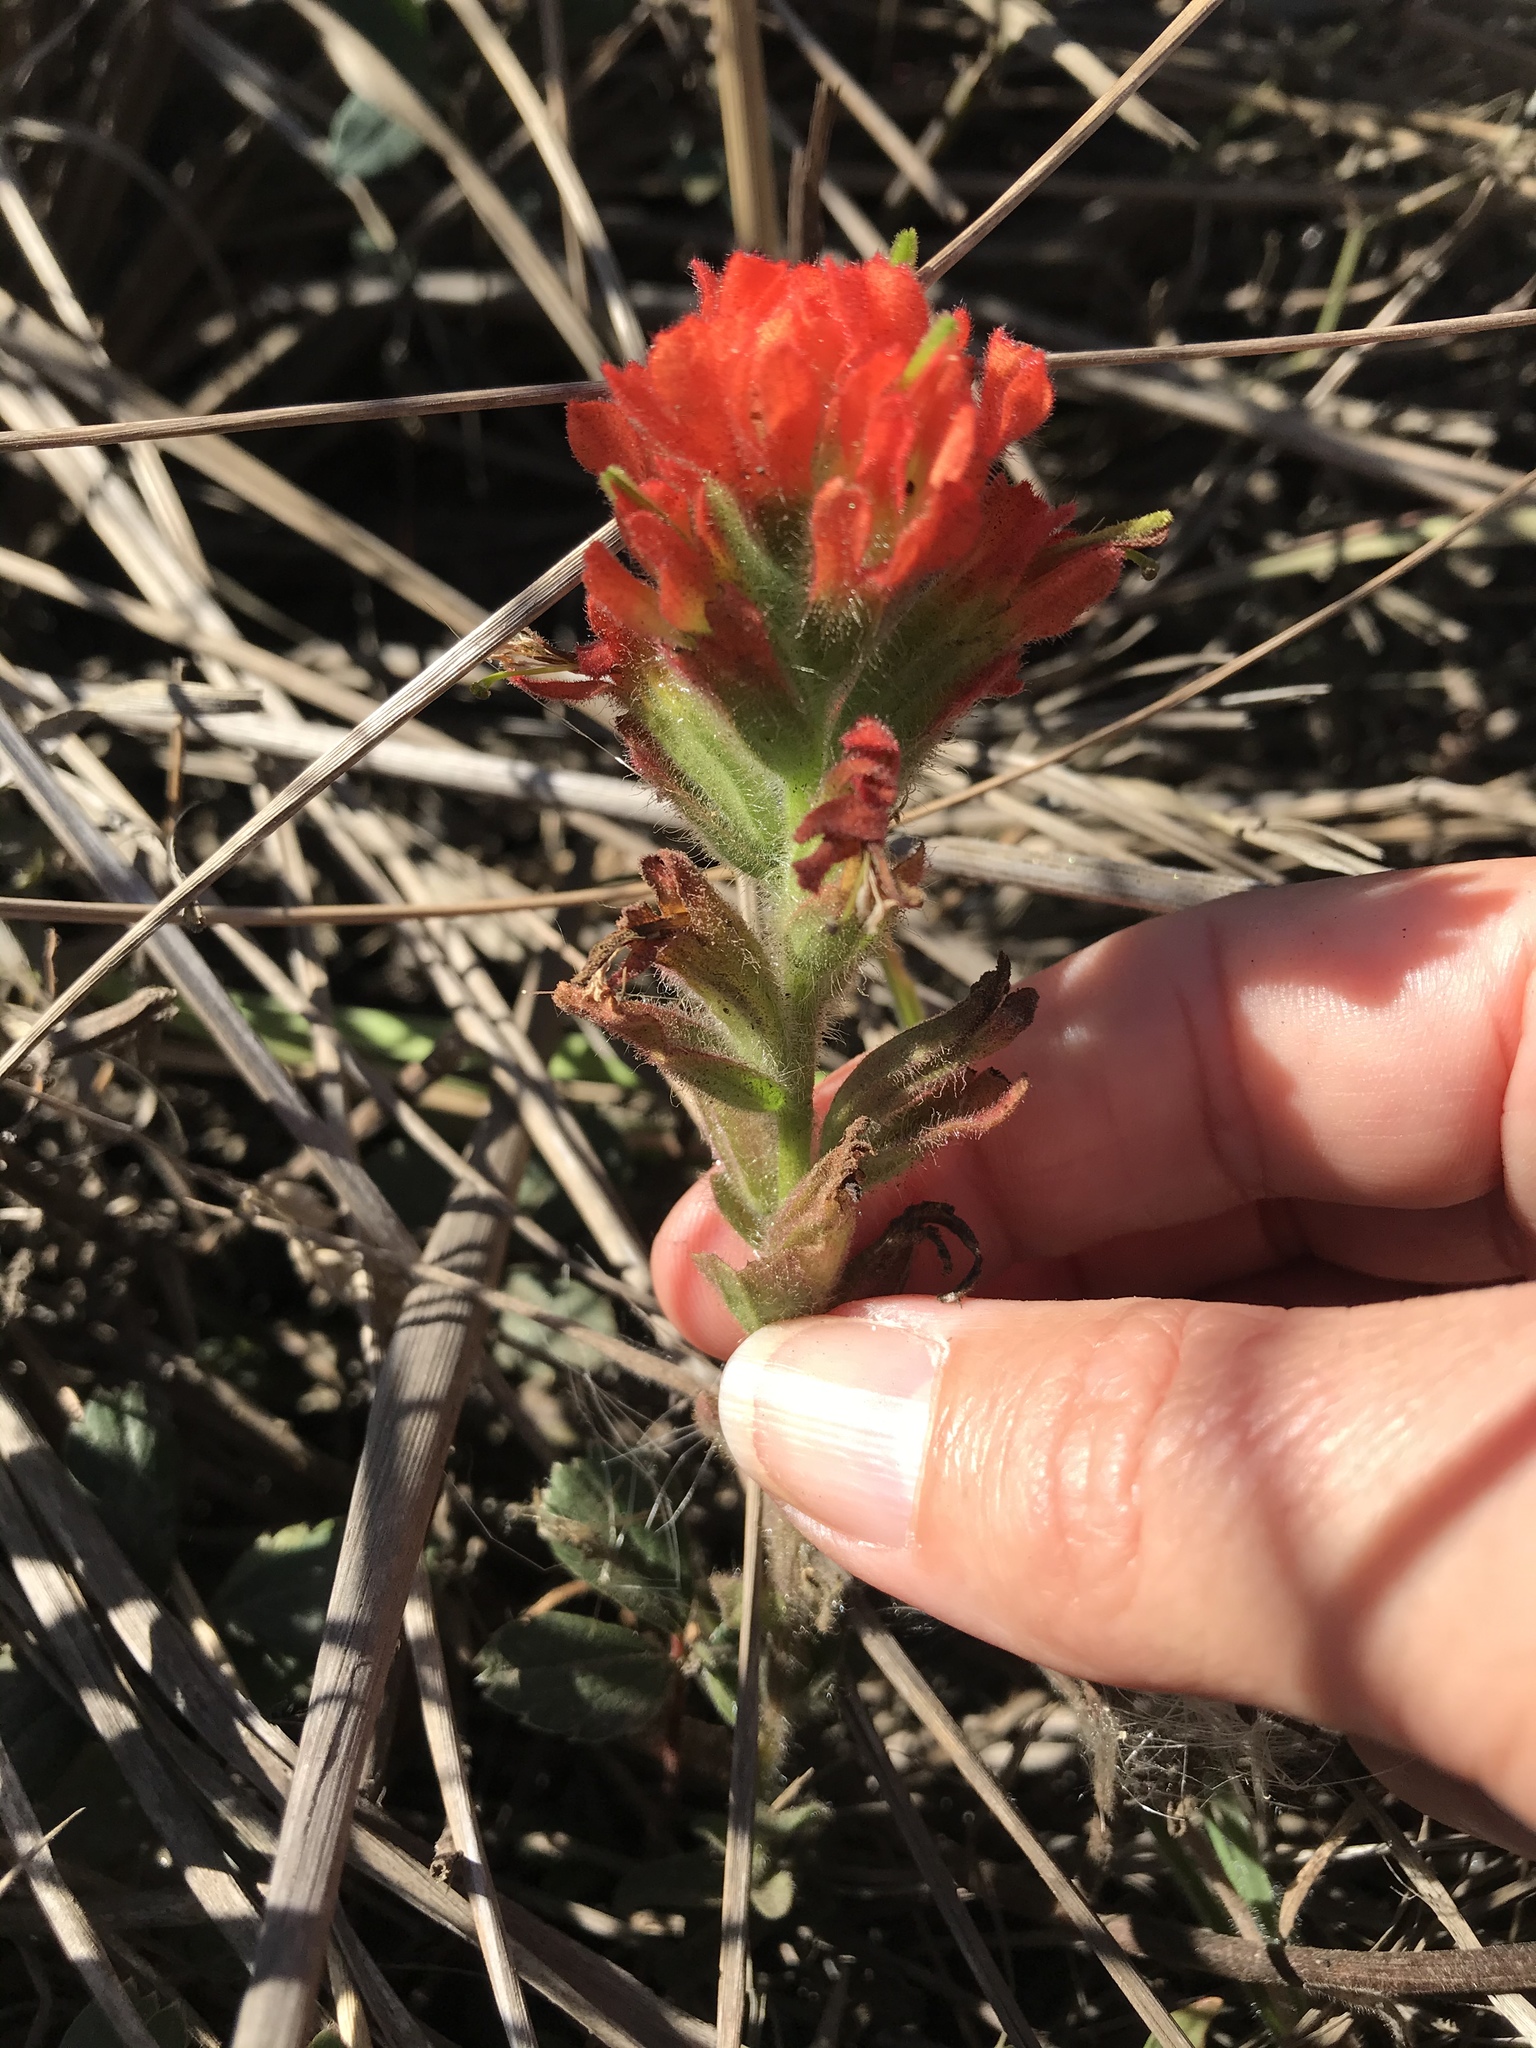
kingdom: Plantae
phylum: Tracheophyta
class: Magnoliopsida
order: Lamiales
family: Orobanchaceae
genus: Castilleja
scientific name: Castilleja affinis
